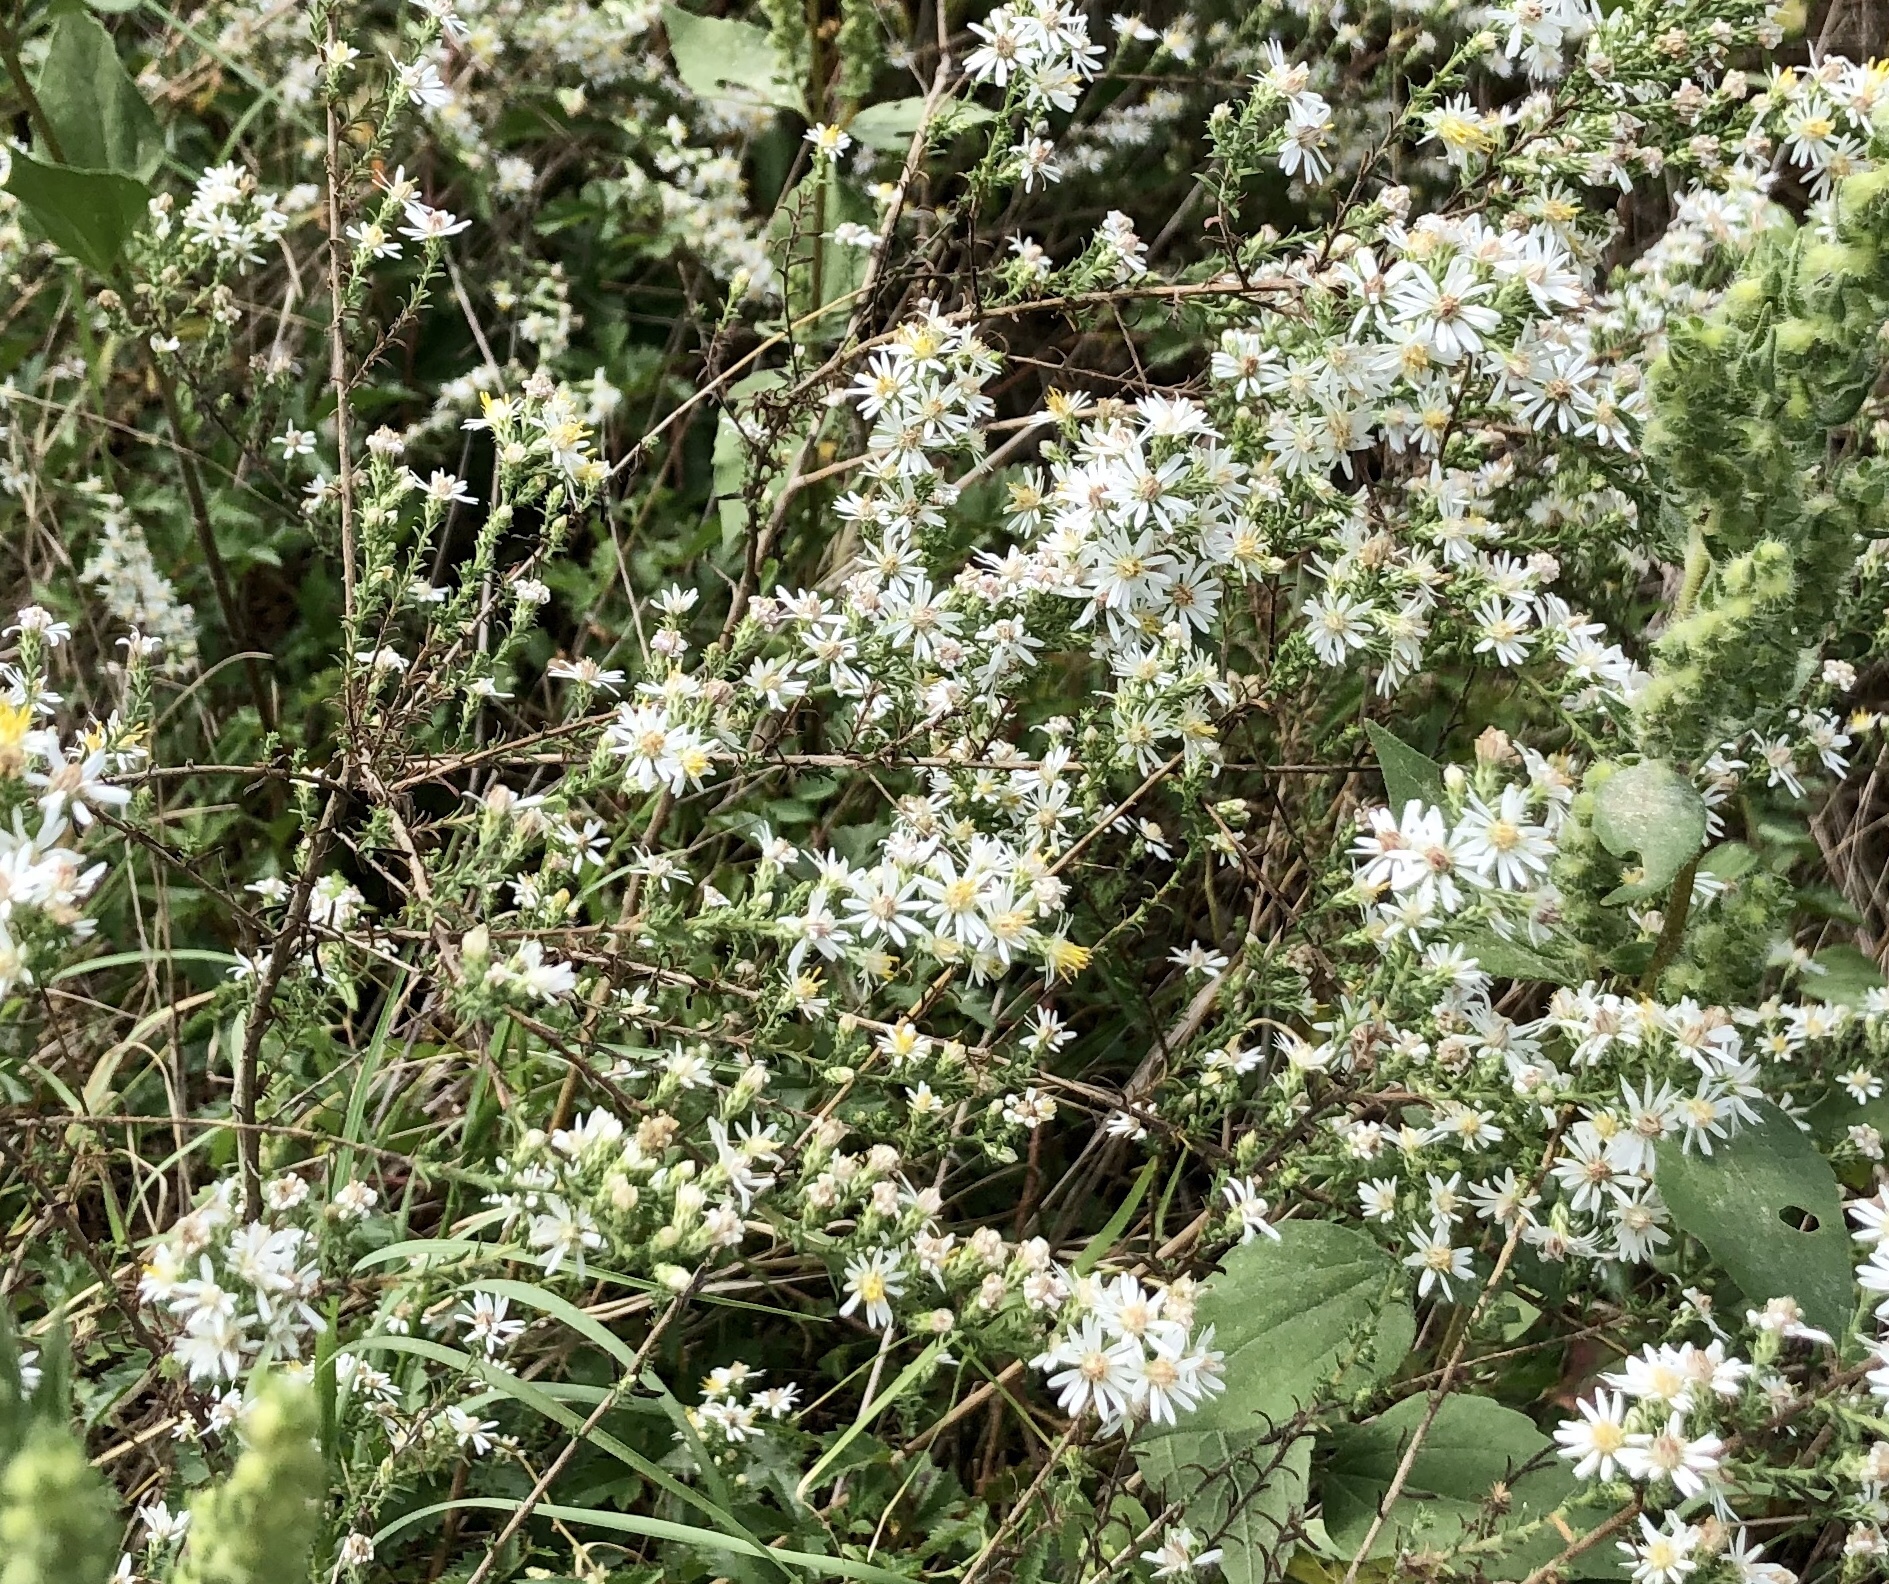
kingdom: Plantae
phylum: Tracheophyta
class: Magnoliopsida
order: Asterales
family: Asteraceae
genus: Symphyotrichum
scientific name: Symphyotrichum ericoides
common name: Heath aster
